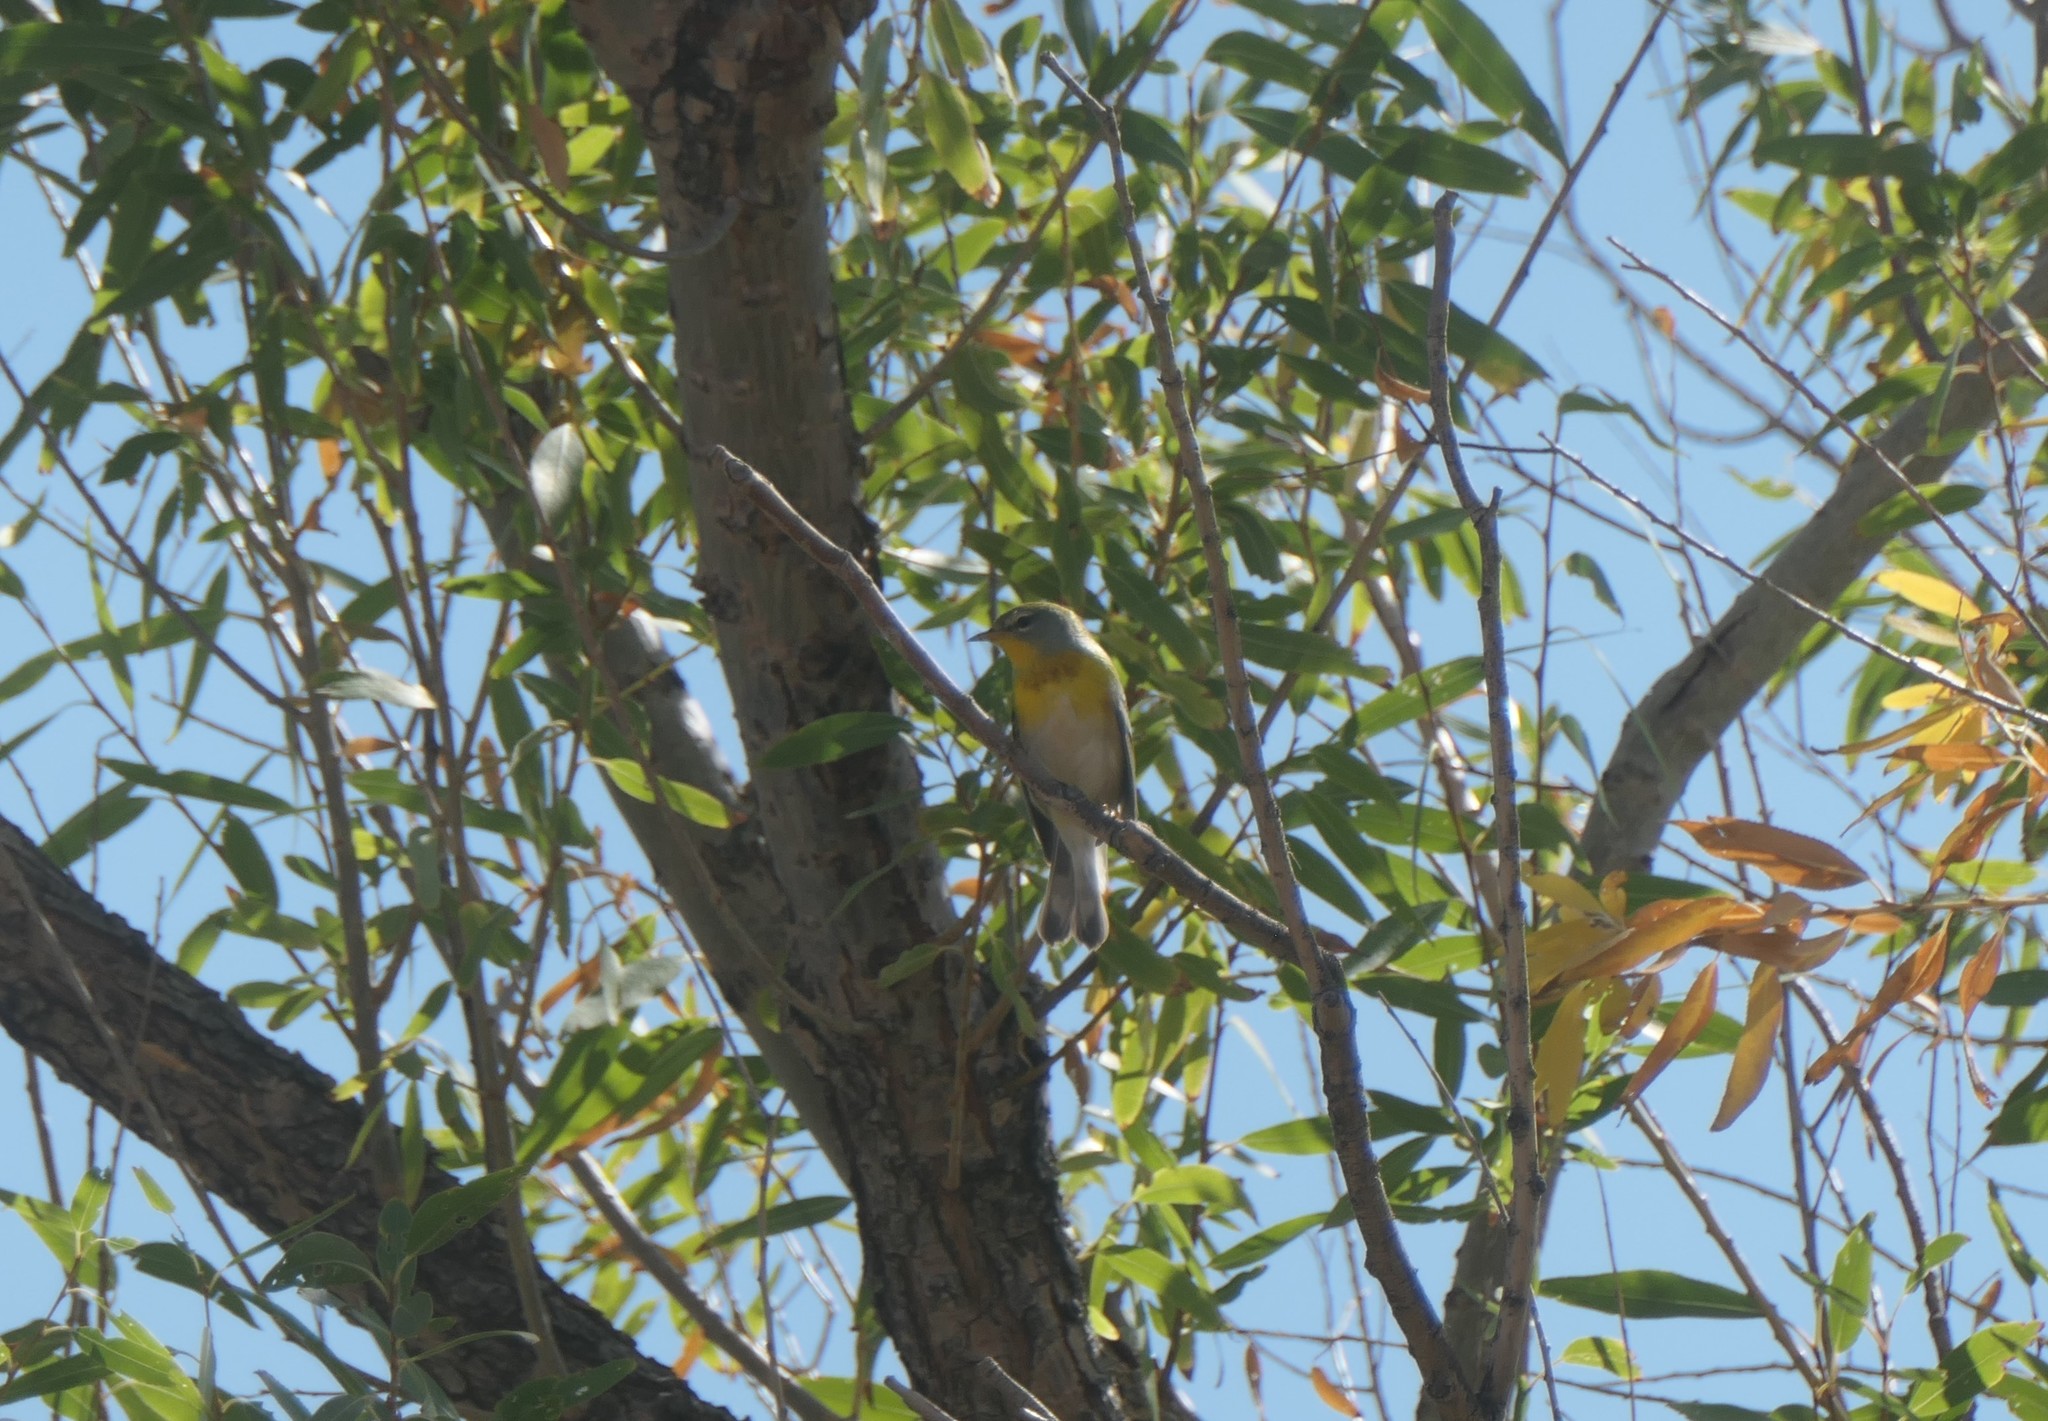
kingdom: Animalia
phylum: Chordata
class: Aves
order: Passeriformes
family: Parulidae
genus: Setophaga
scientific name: Setophaga americana
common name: Northern parula
